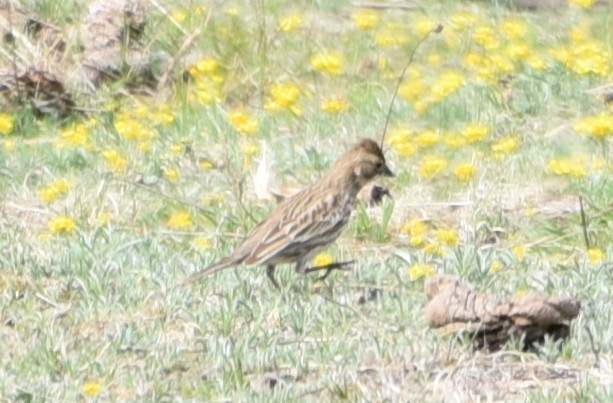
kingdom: Animalia
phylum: Chordata
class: Aves
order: Passeriformes
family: Passerellidae
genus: Calamospiza
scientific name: Calamospiza melanocorys
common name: Lark bunting
